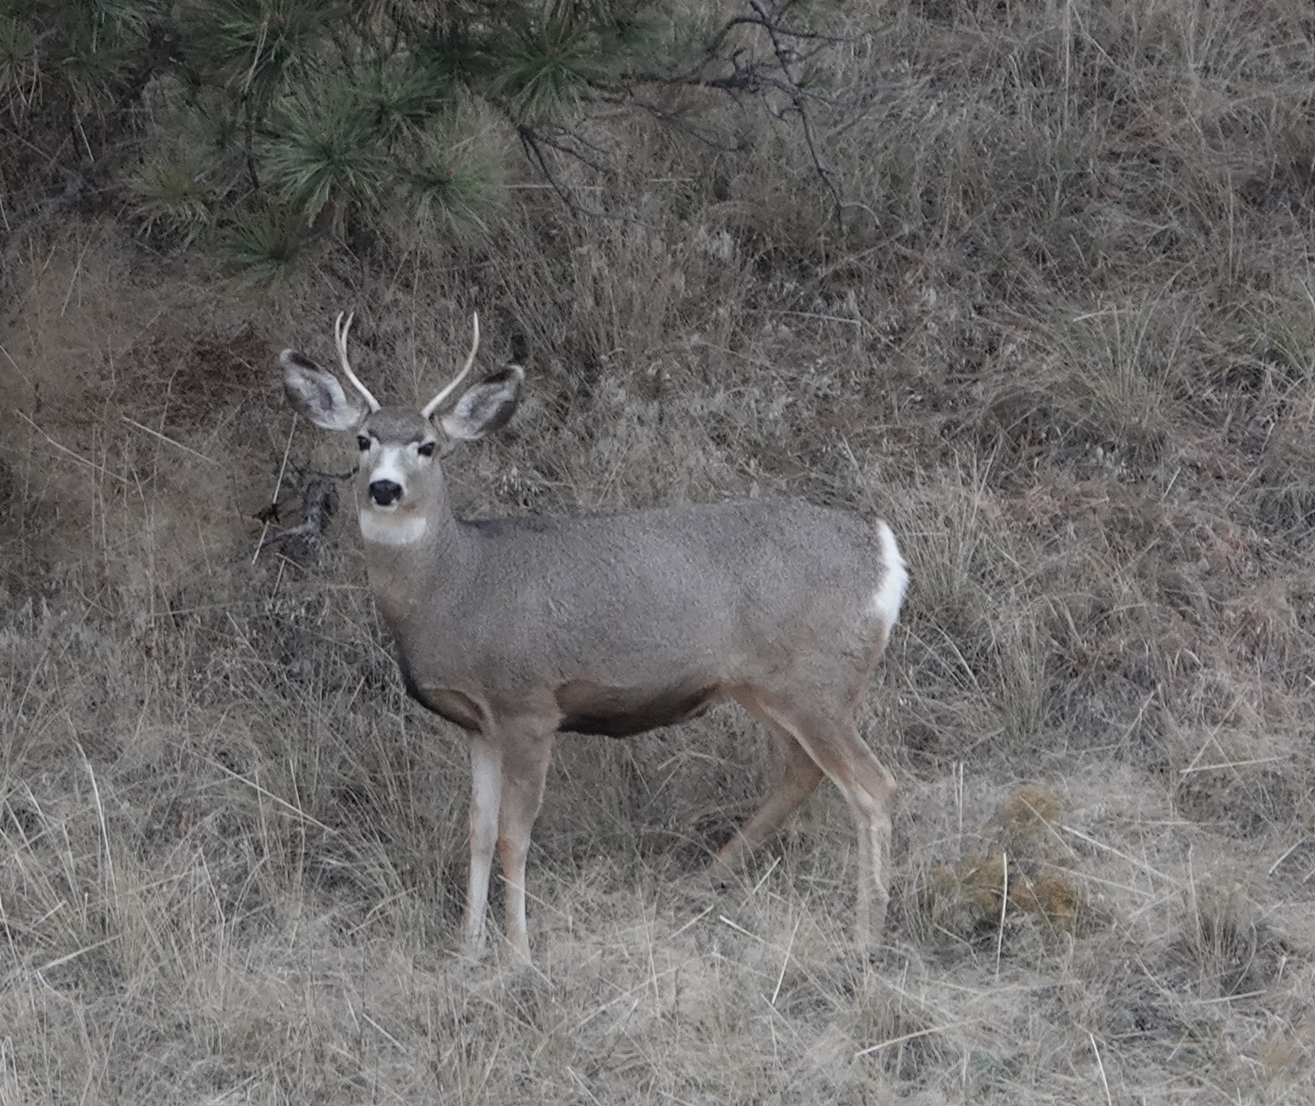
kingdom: Animalia
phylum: Chordata
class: Mammalia
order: Artiodactyla
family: Cervidae
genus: Odocoileus
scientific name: Odocoileus hemionus
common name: Mule deer
